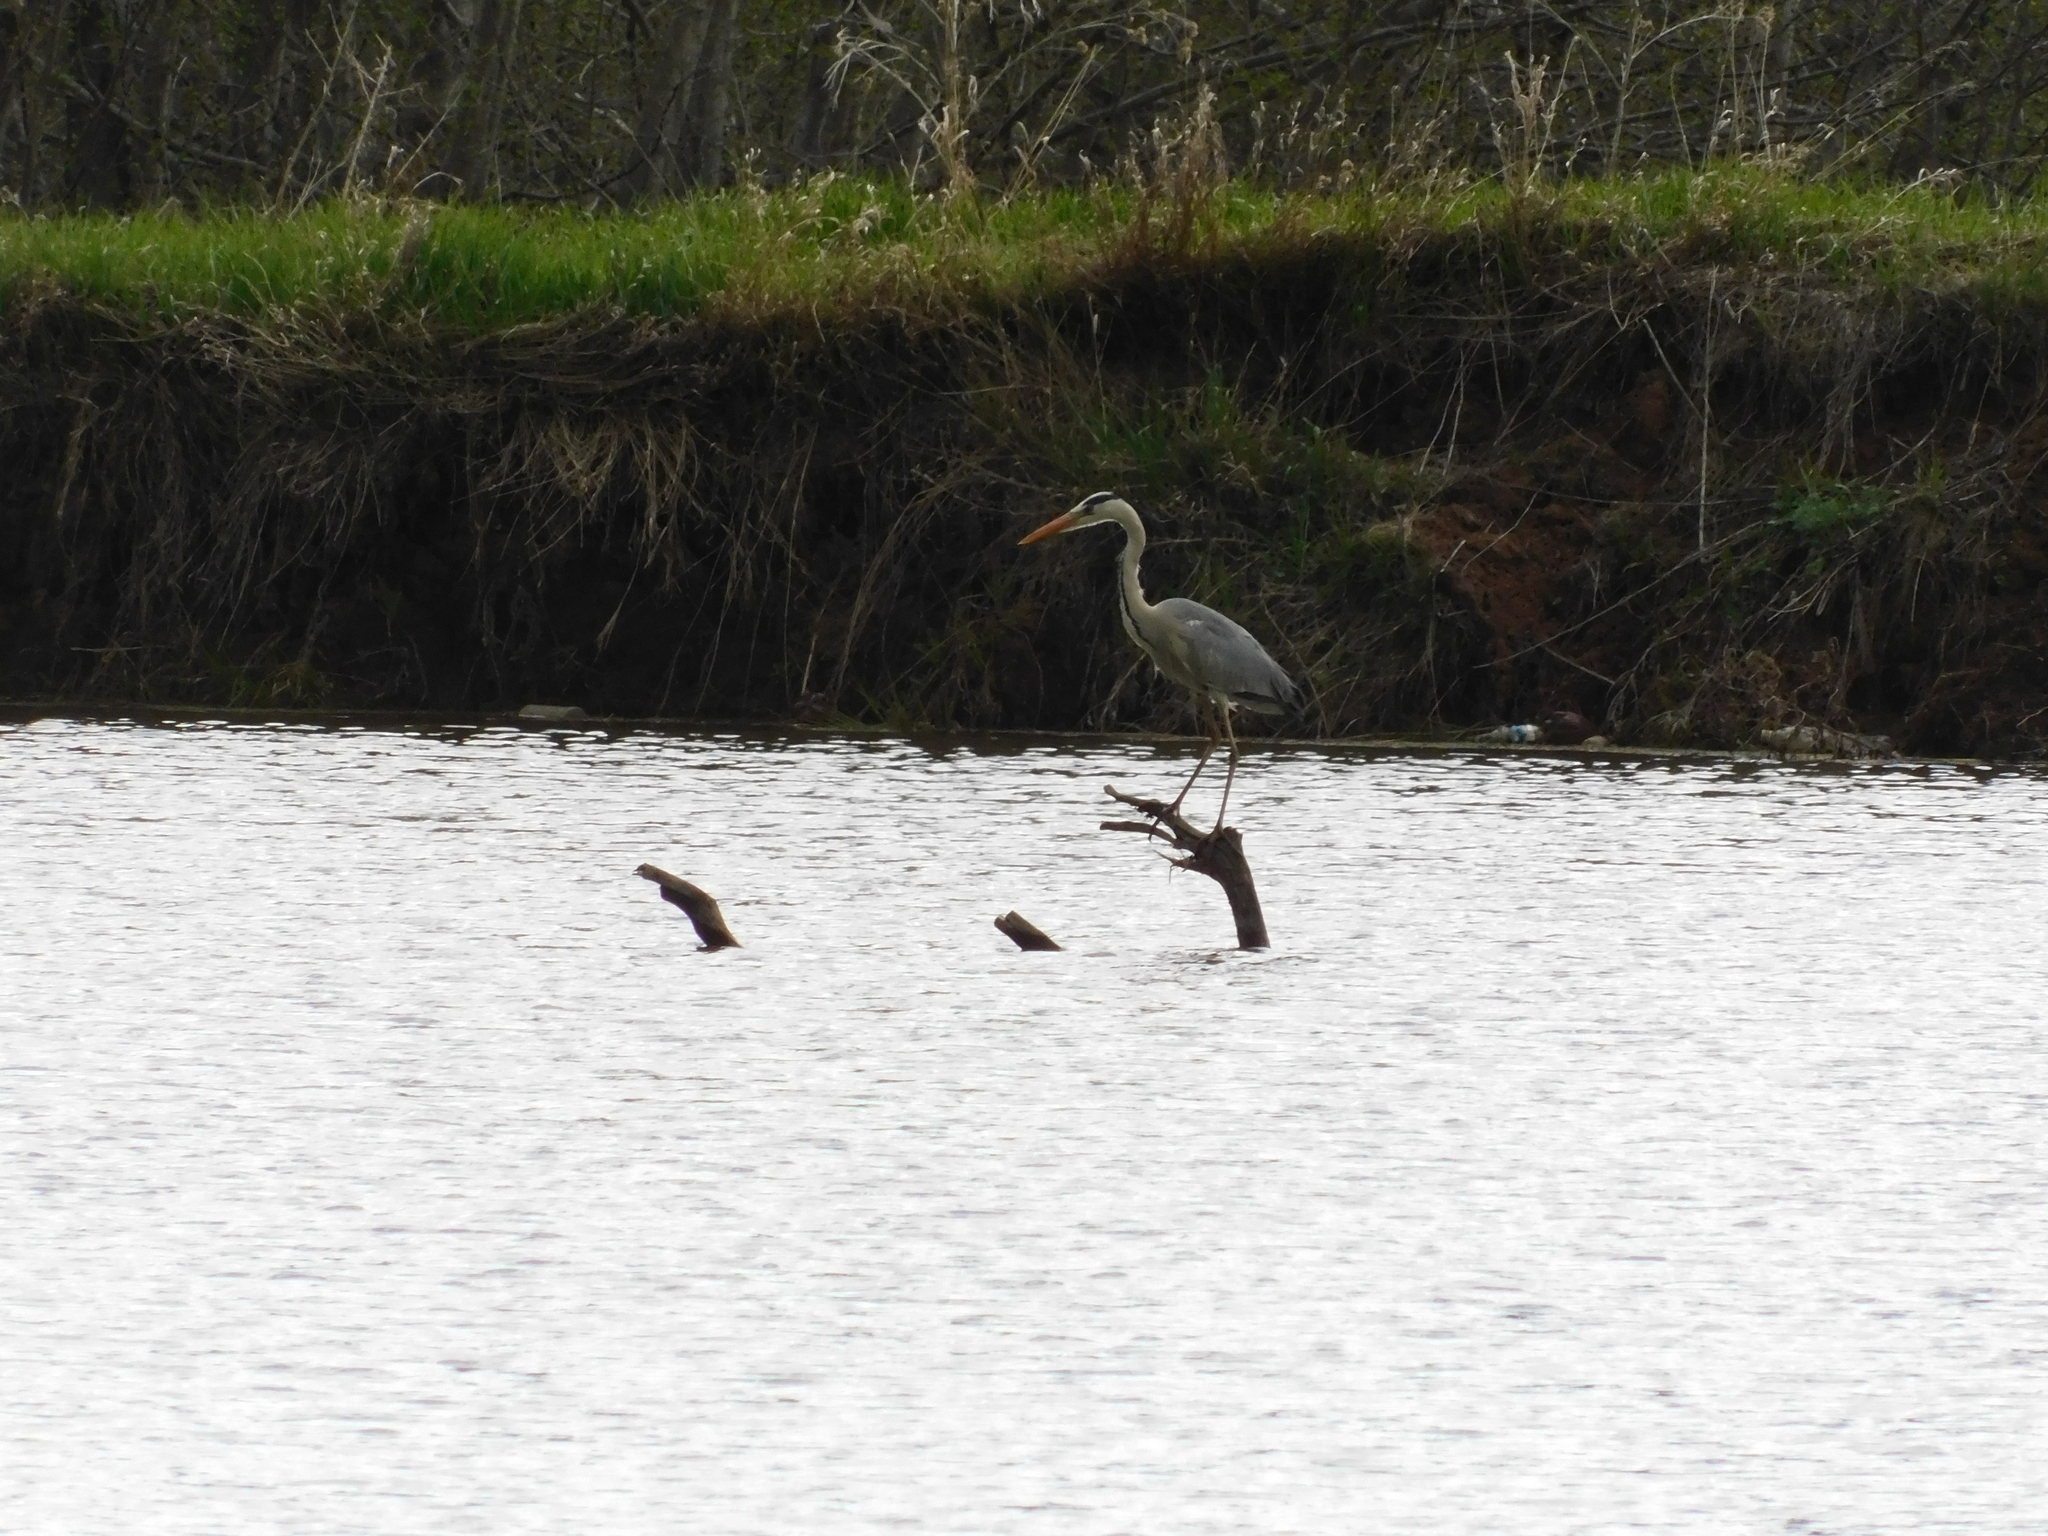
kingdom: Animalia
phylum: Chordata
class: Aves
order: Pelecaniformes
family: Ardeidae
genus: Ardea
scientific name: Ardea cinerea
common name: Grey heron
